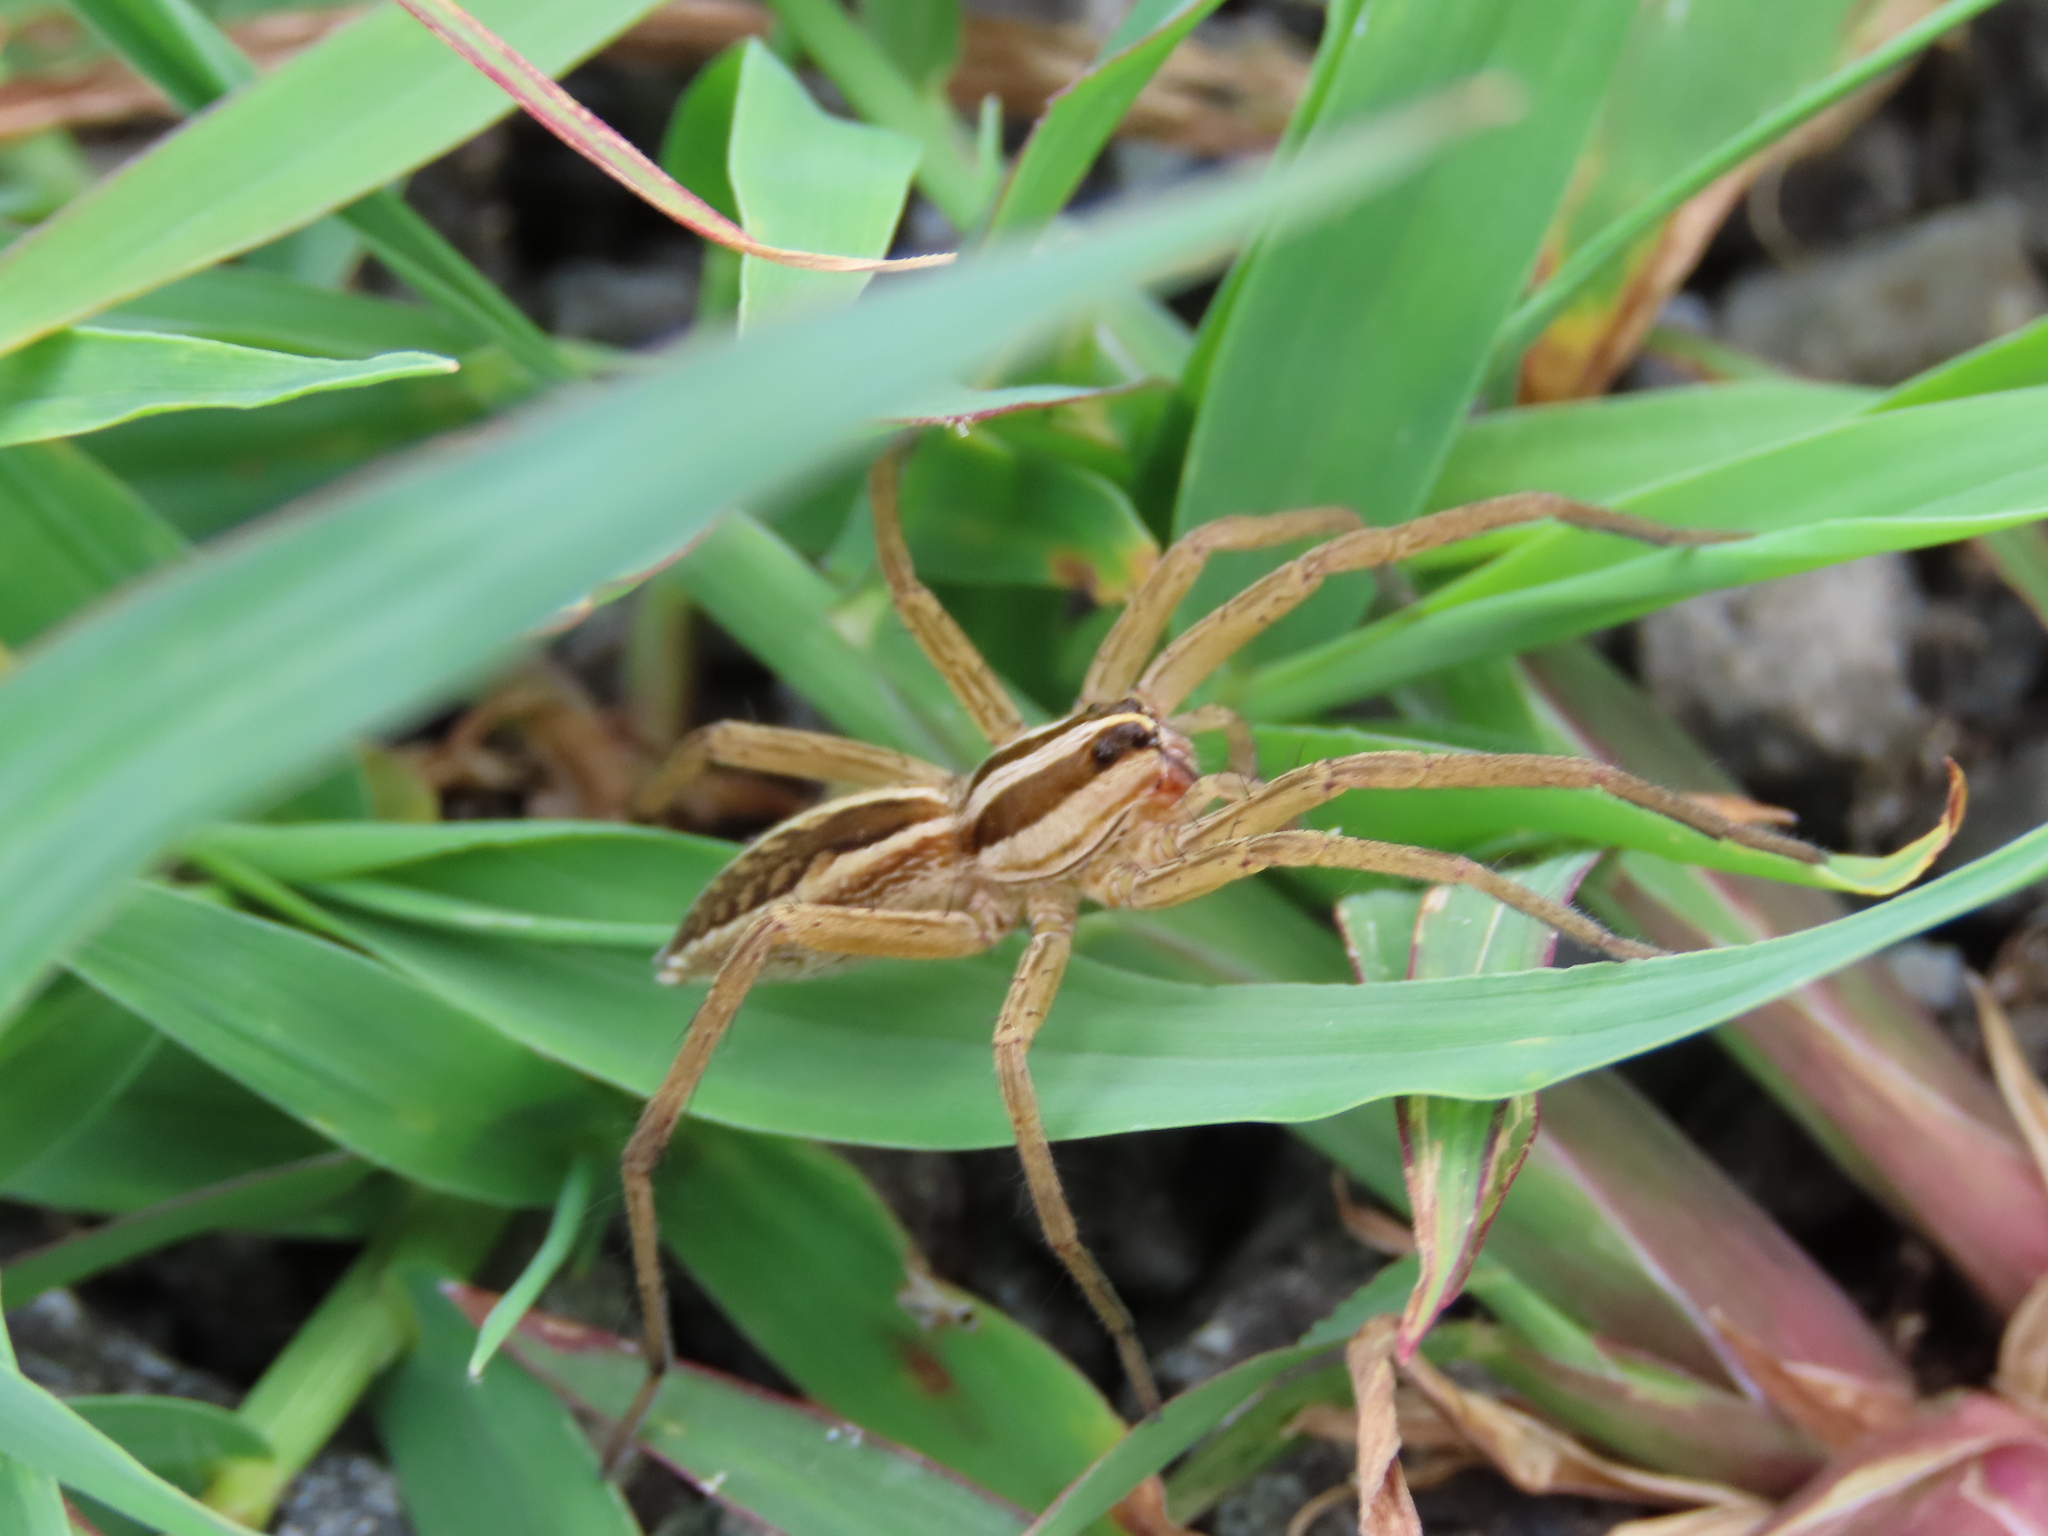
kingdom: Animalia
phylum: Arthropoda
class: Arachnida
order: Araneae
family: Lycosidae
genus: Rabidosa
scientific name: Rabidosa rabida
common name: Rabid wolf spider
